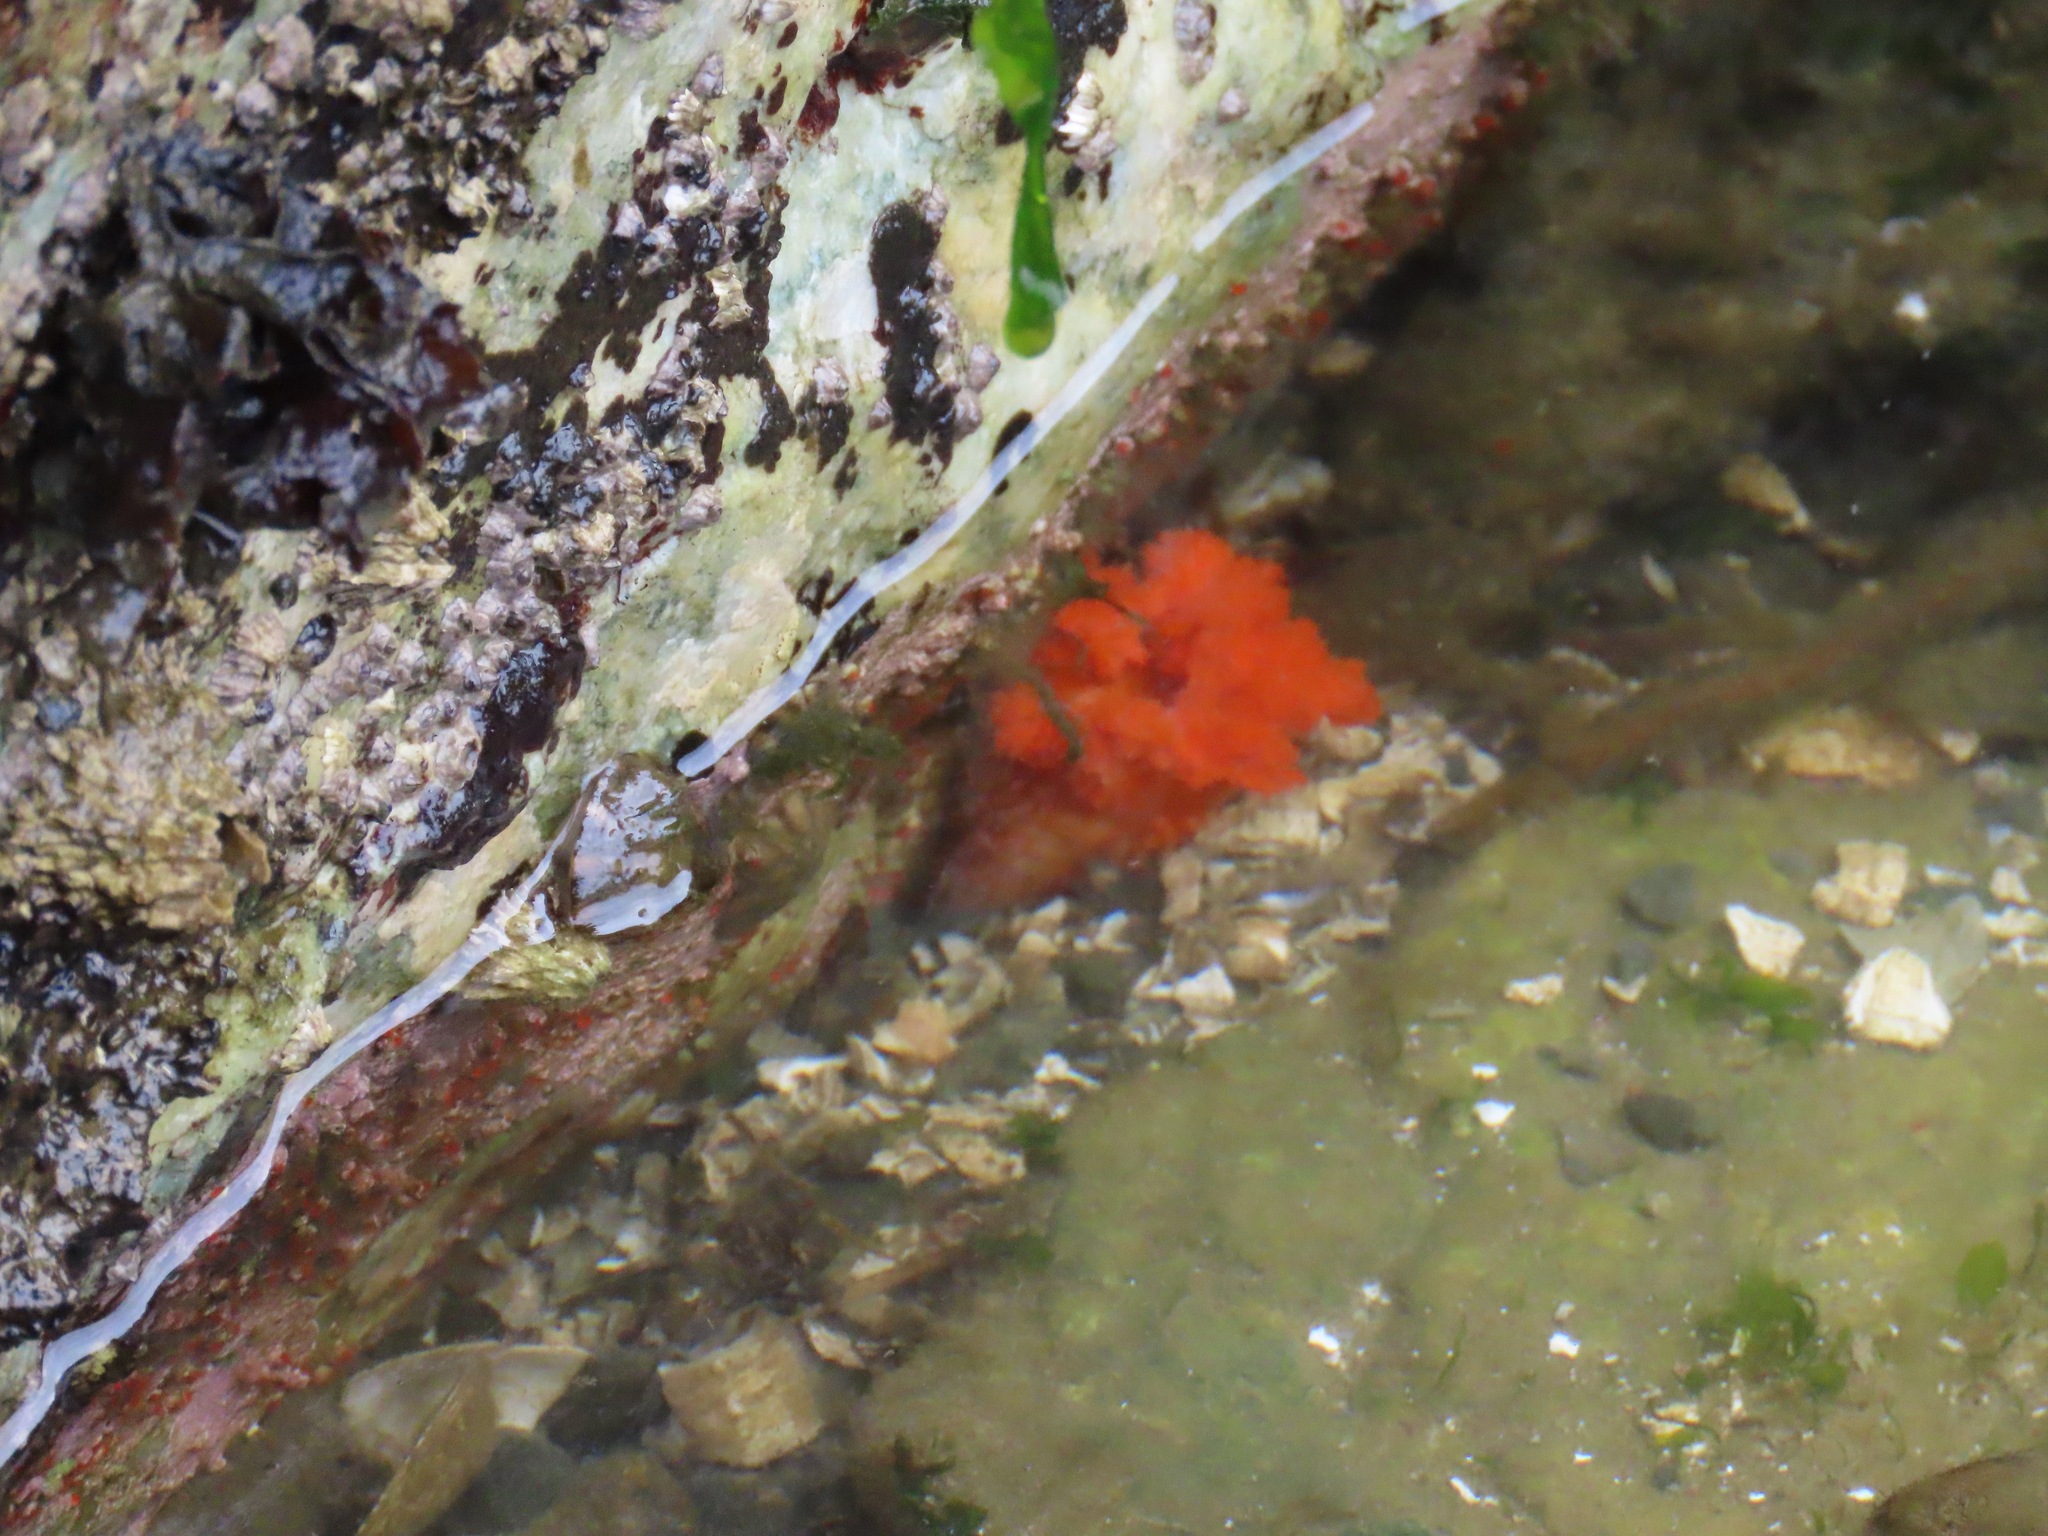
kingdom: Animalia
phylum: Echinodermata
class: Holothuroidea
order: Dendrochirotida
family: Cucumariidae
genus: Cucumaria
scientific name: Cucumaria miniata
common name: Orange sea cucumber
